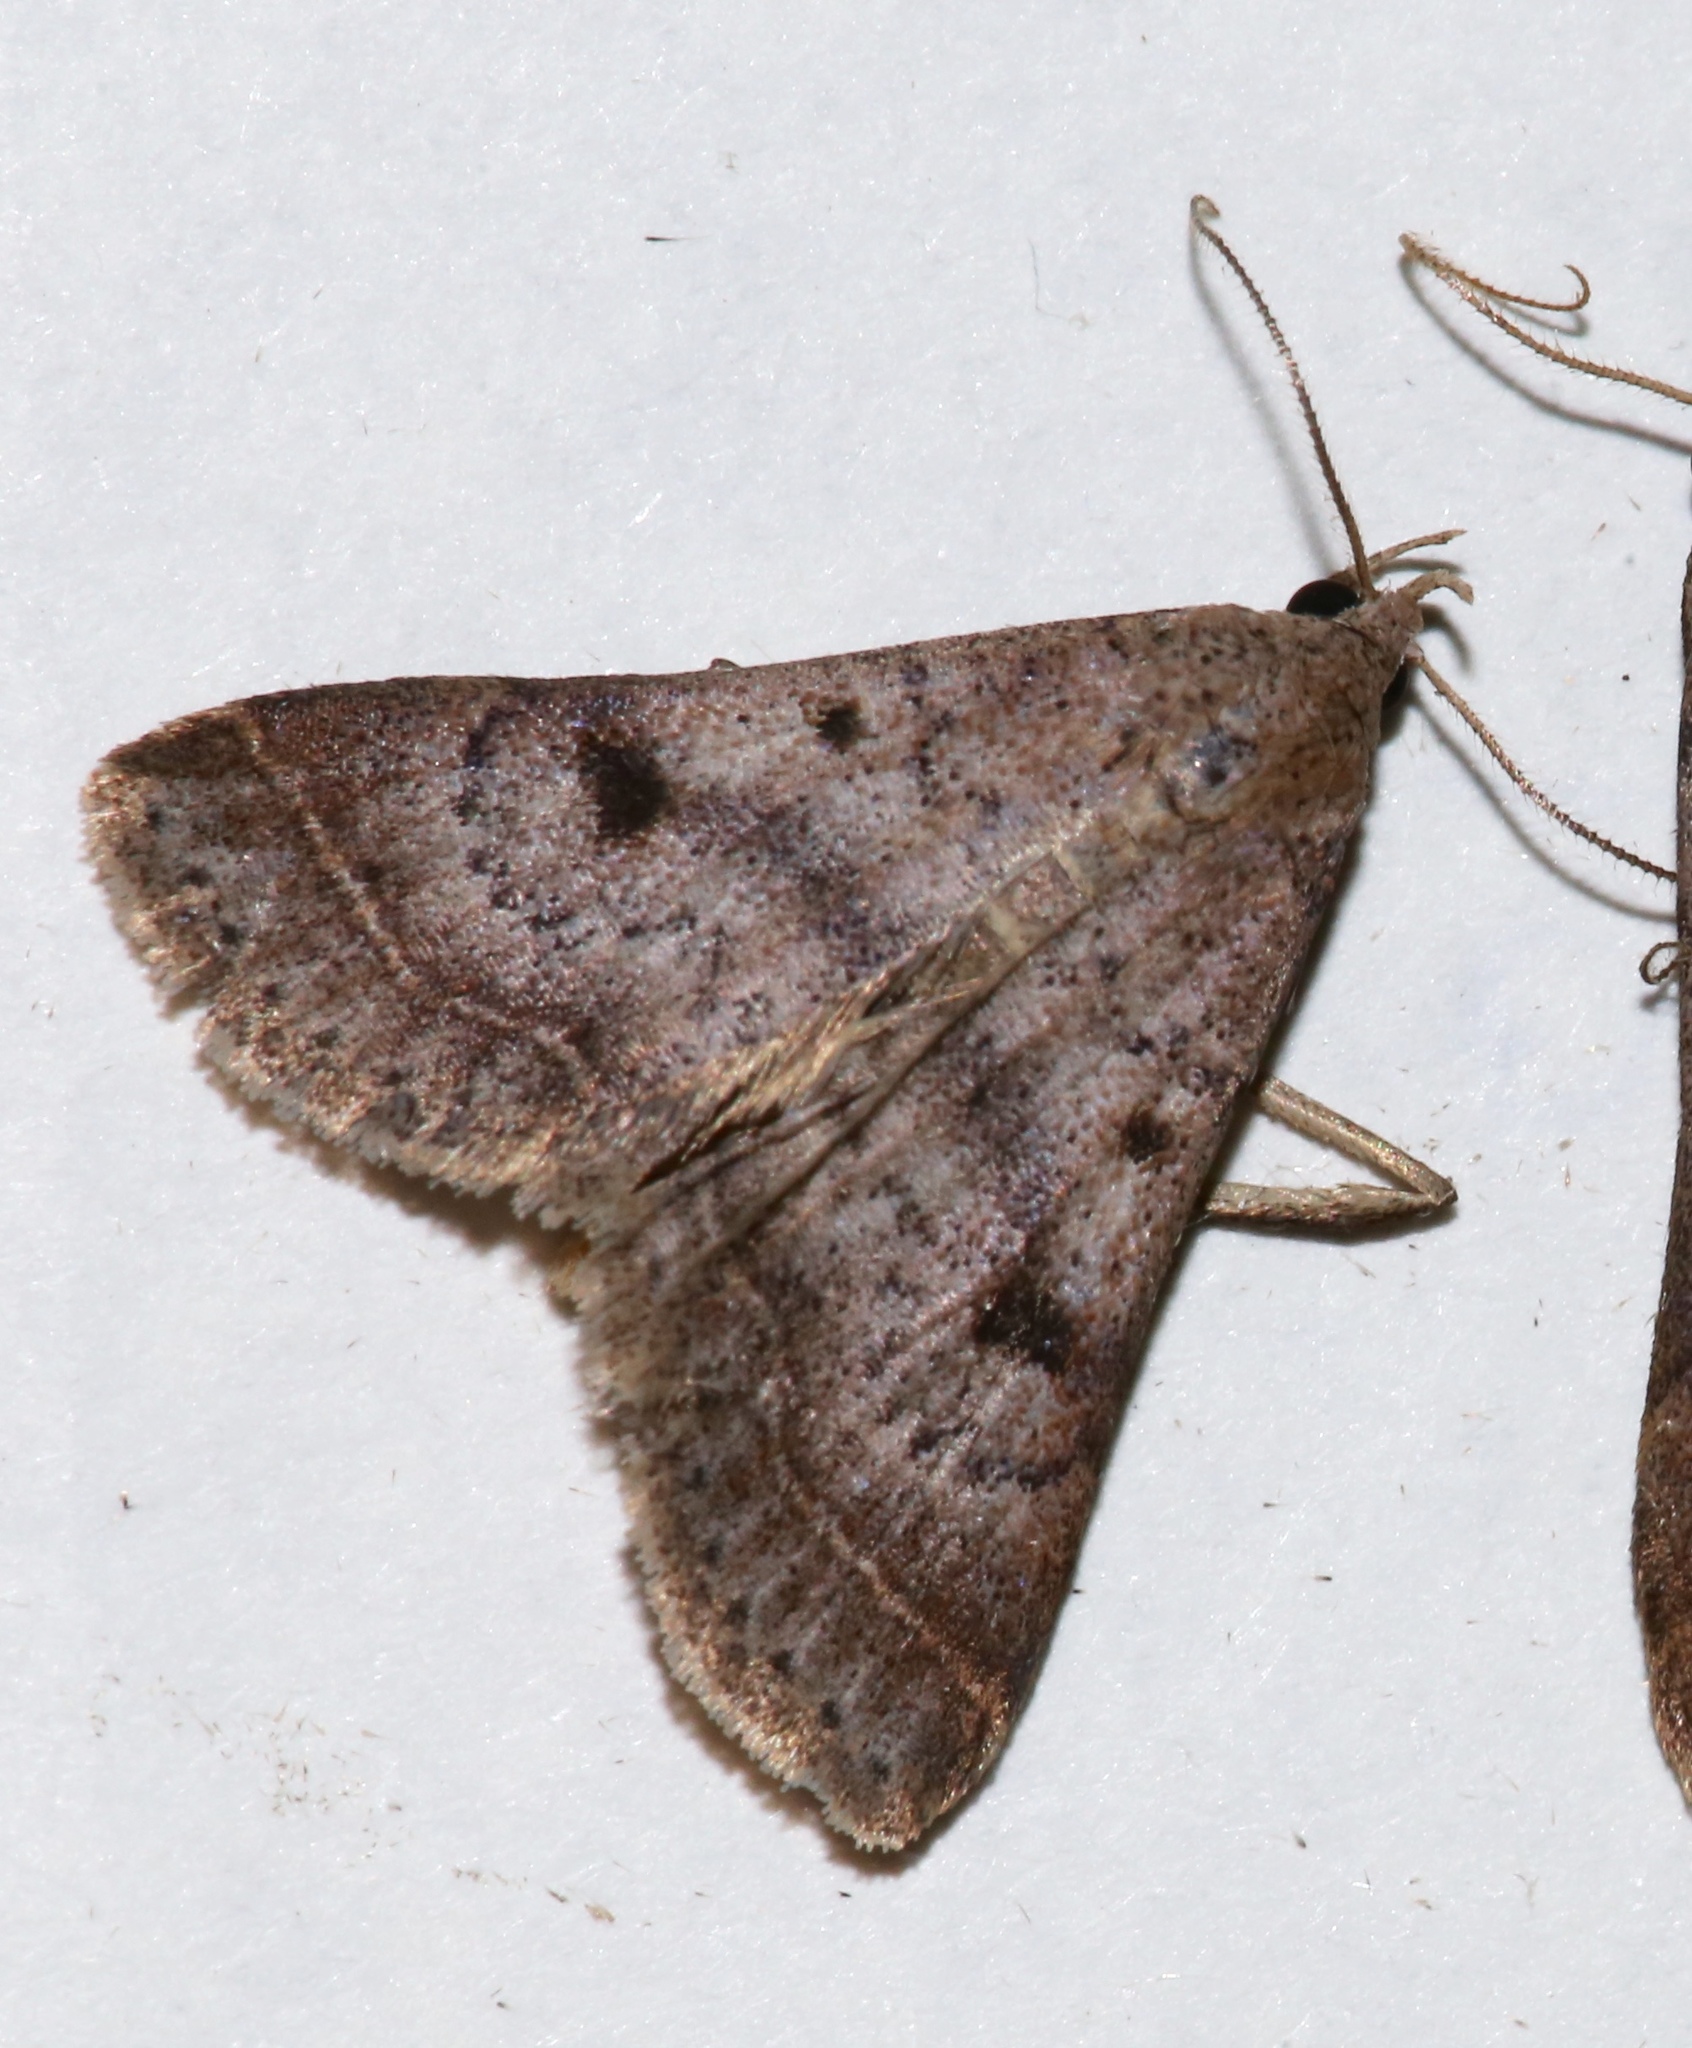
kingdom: Animalia
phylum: Arthropoda
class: Insecta
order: Lepidoptera
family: Erebidae
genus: Bleptina
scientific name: Bleptina caradrinalis
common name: Bent-winged owlet
